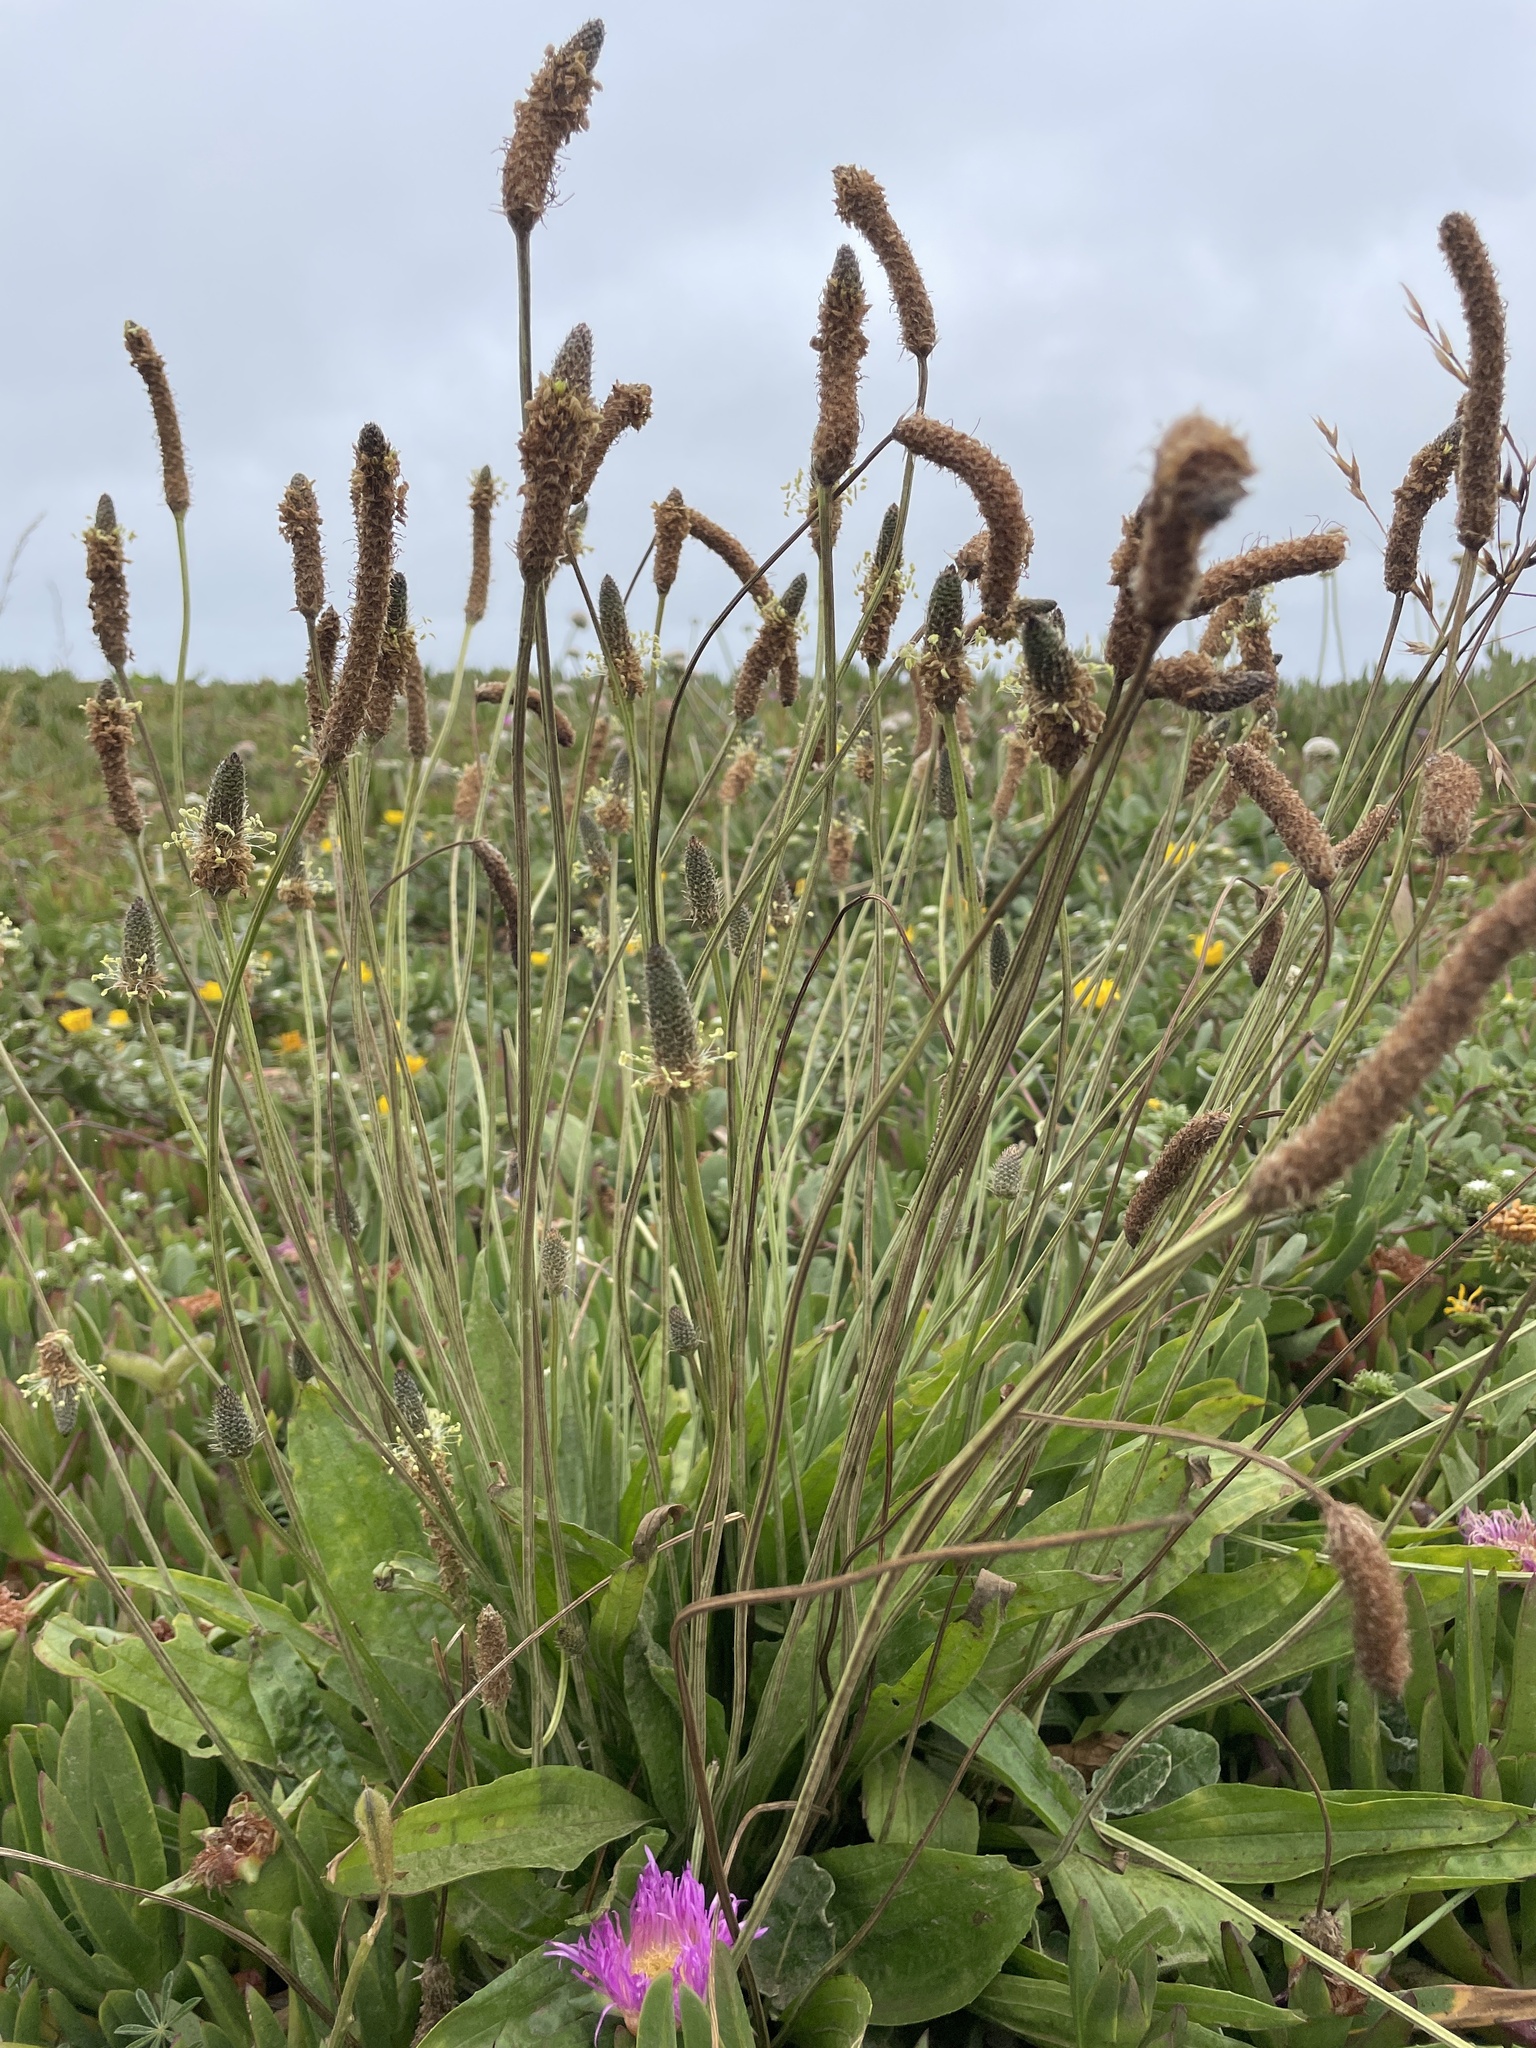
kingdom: Plantae
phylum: Tracheophyta
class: Magnoliopsida
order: Lamiales
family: Plantaginaceae
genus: Plantago
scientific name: Plantago lanceolata
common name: Ribwort plantain
